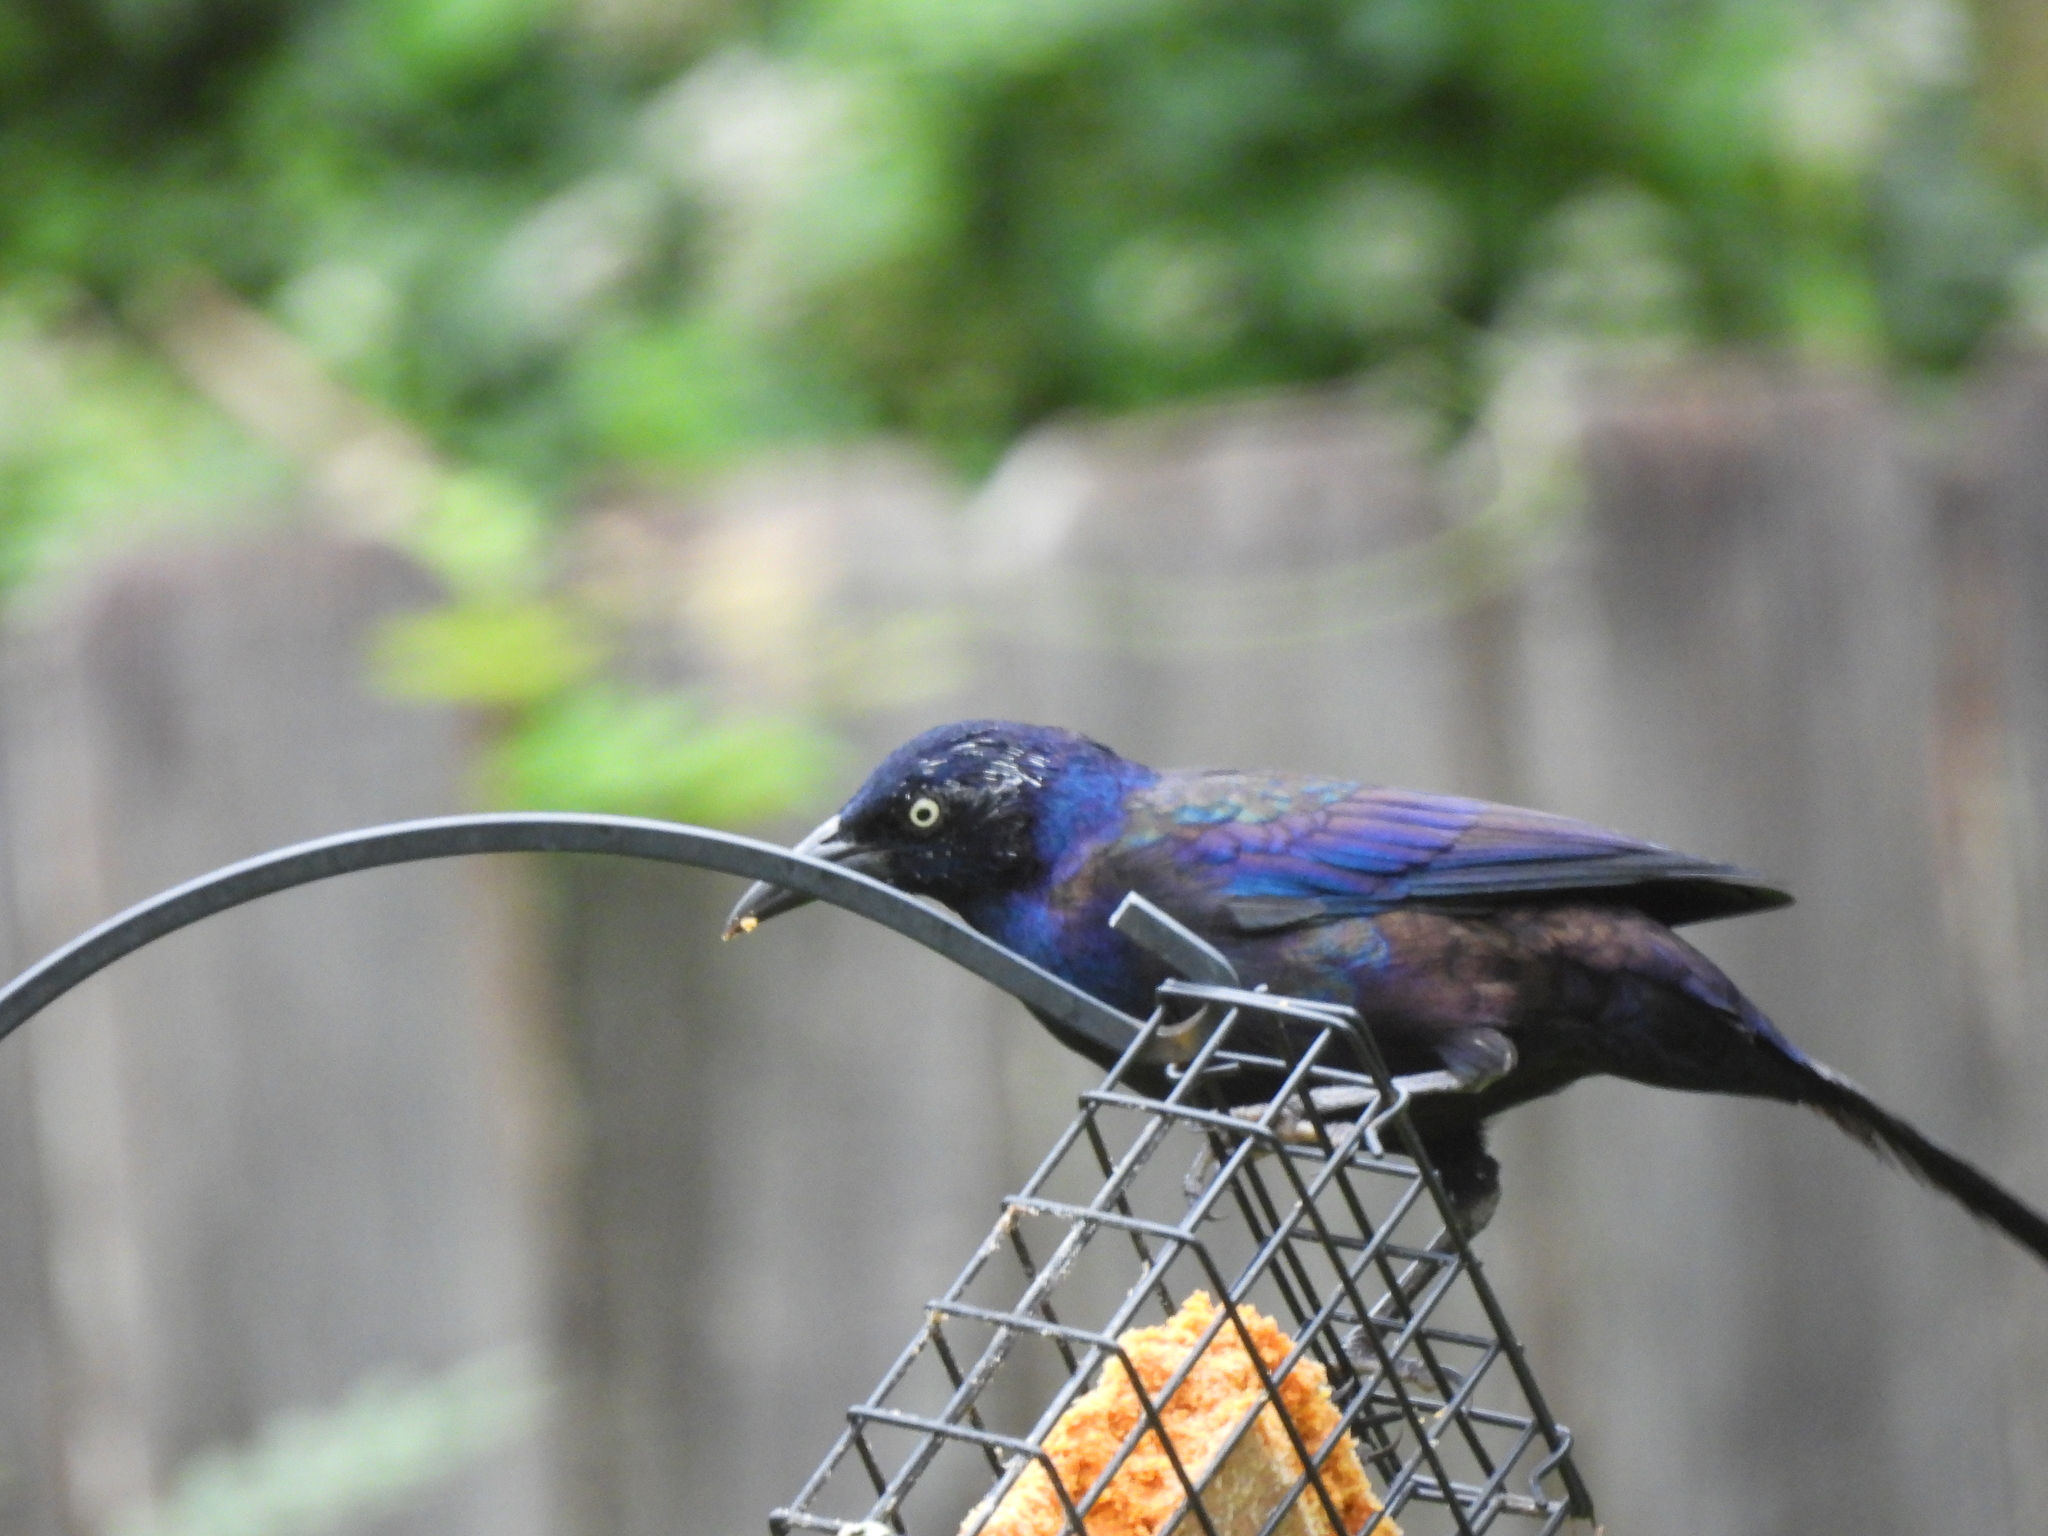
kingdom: Animalia
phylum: Chordata
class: Aves
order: Passeriformes
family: Icteridae
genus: Quiscalus
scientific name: Quiscalus quiscula
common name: Common grackle
